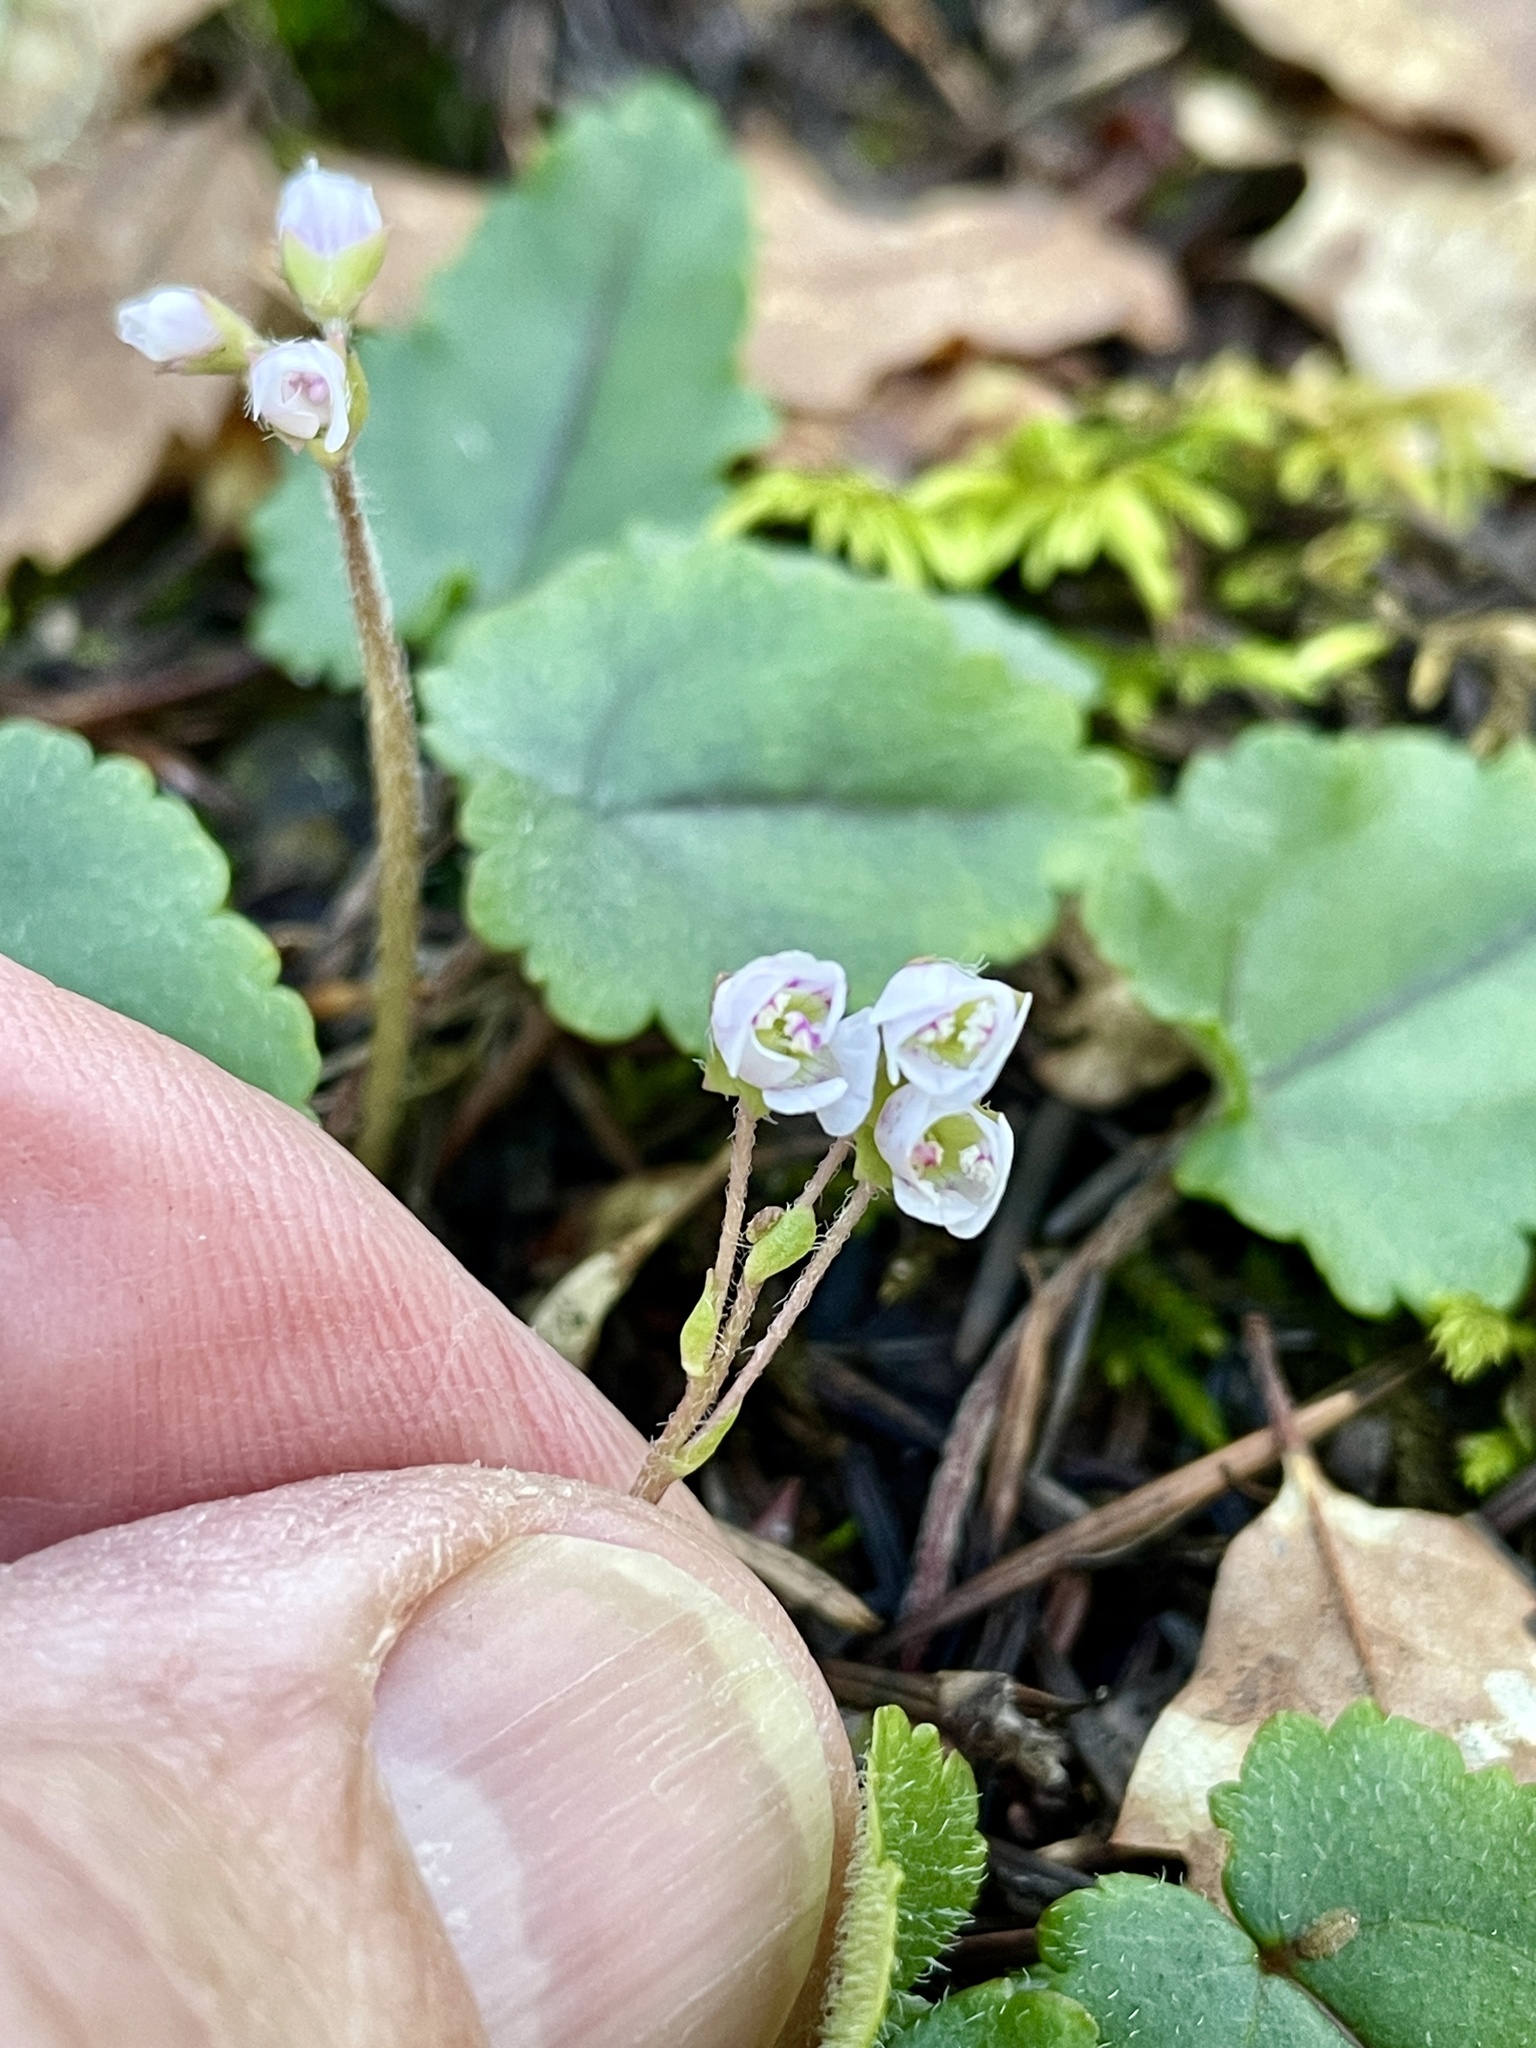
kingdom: Plantae
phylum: Tracheophyta
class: Magnoliopsida
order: Lamiales
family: Plantaginaceae
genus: Synthyris
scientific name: Synthyris cordata
